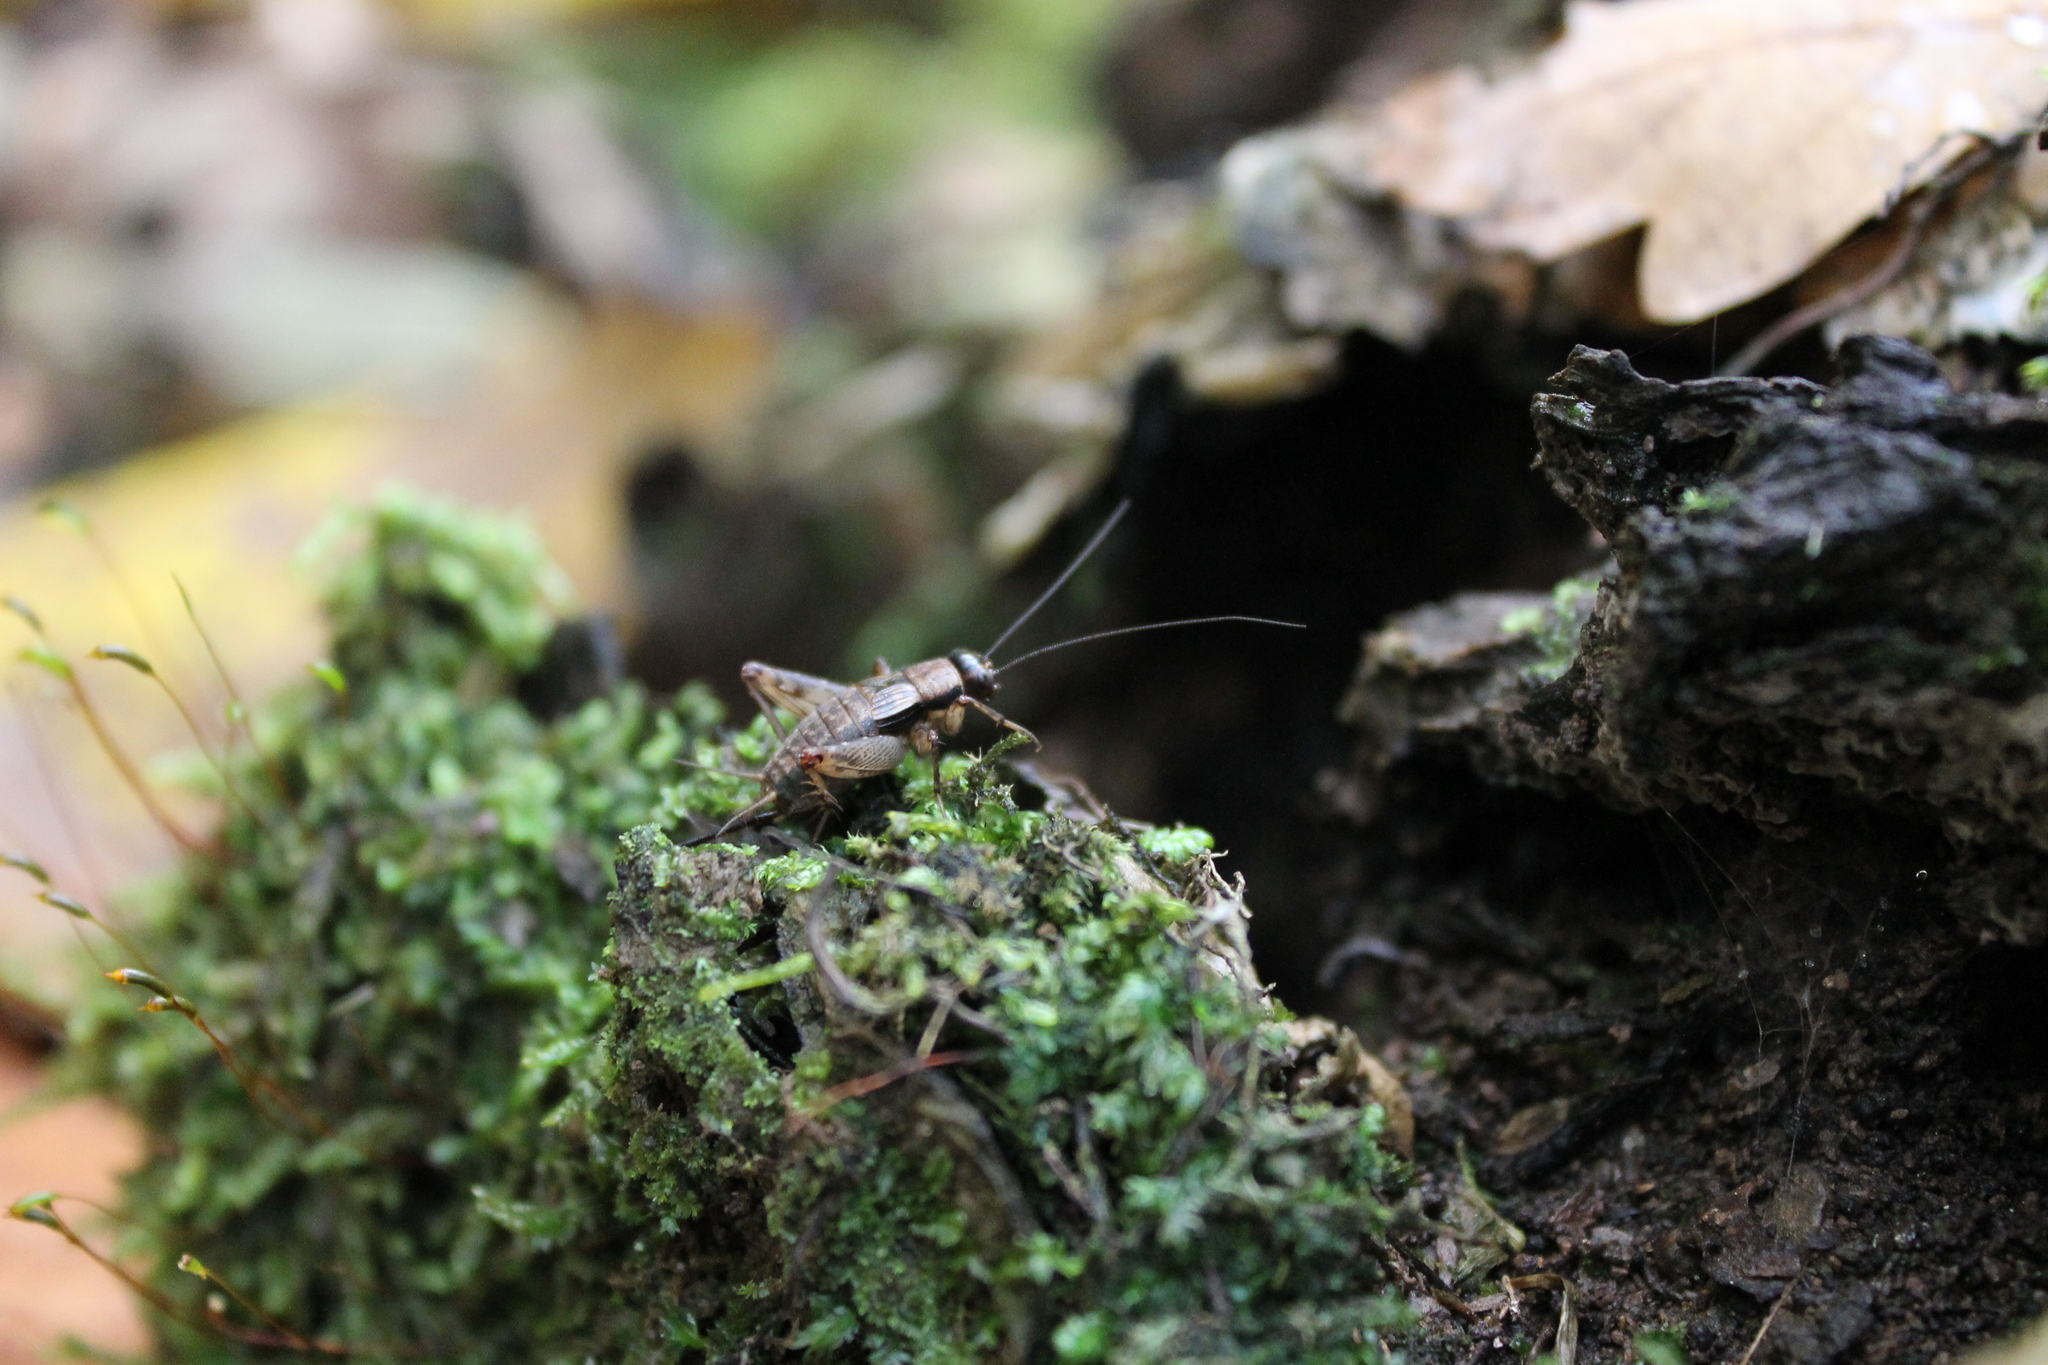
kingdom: Animalia
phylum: Arthropoda
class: Insecta
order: Orthoptera
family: Trigonidiidae
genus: Nemobius
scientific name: Nemobius sylvestris
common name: Wood-cricket
